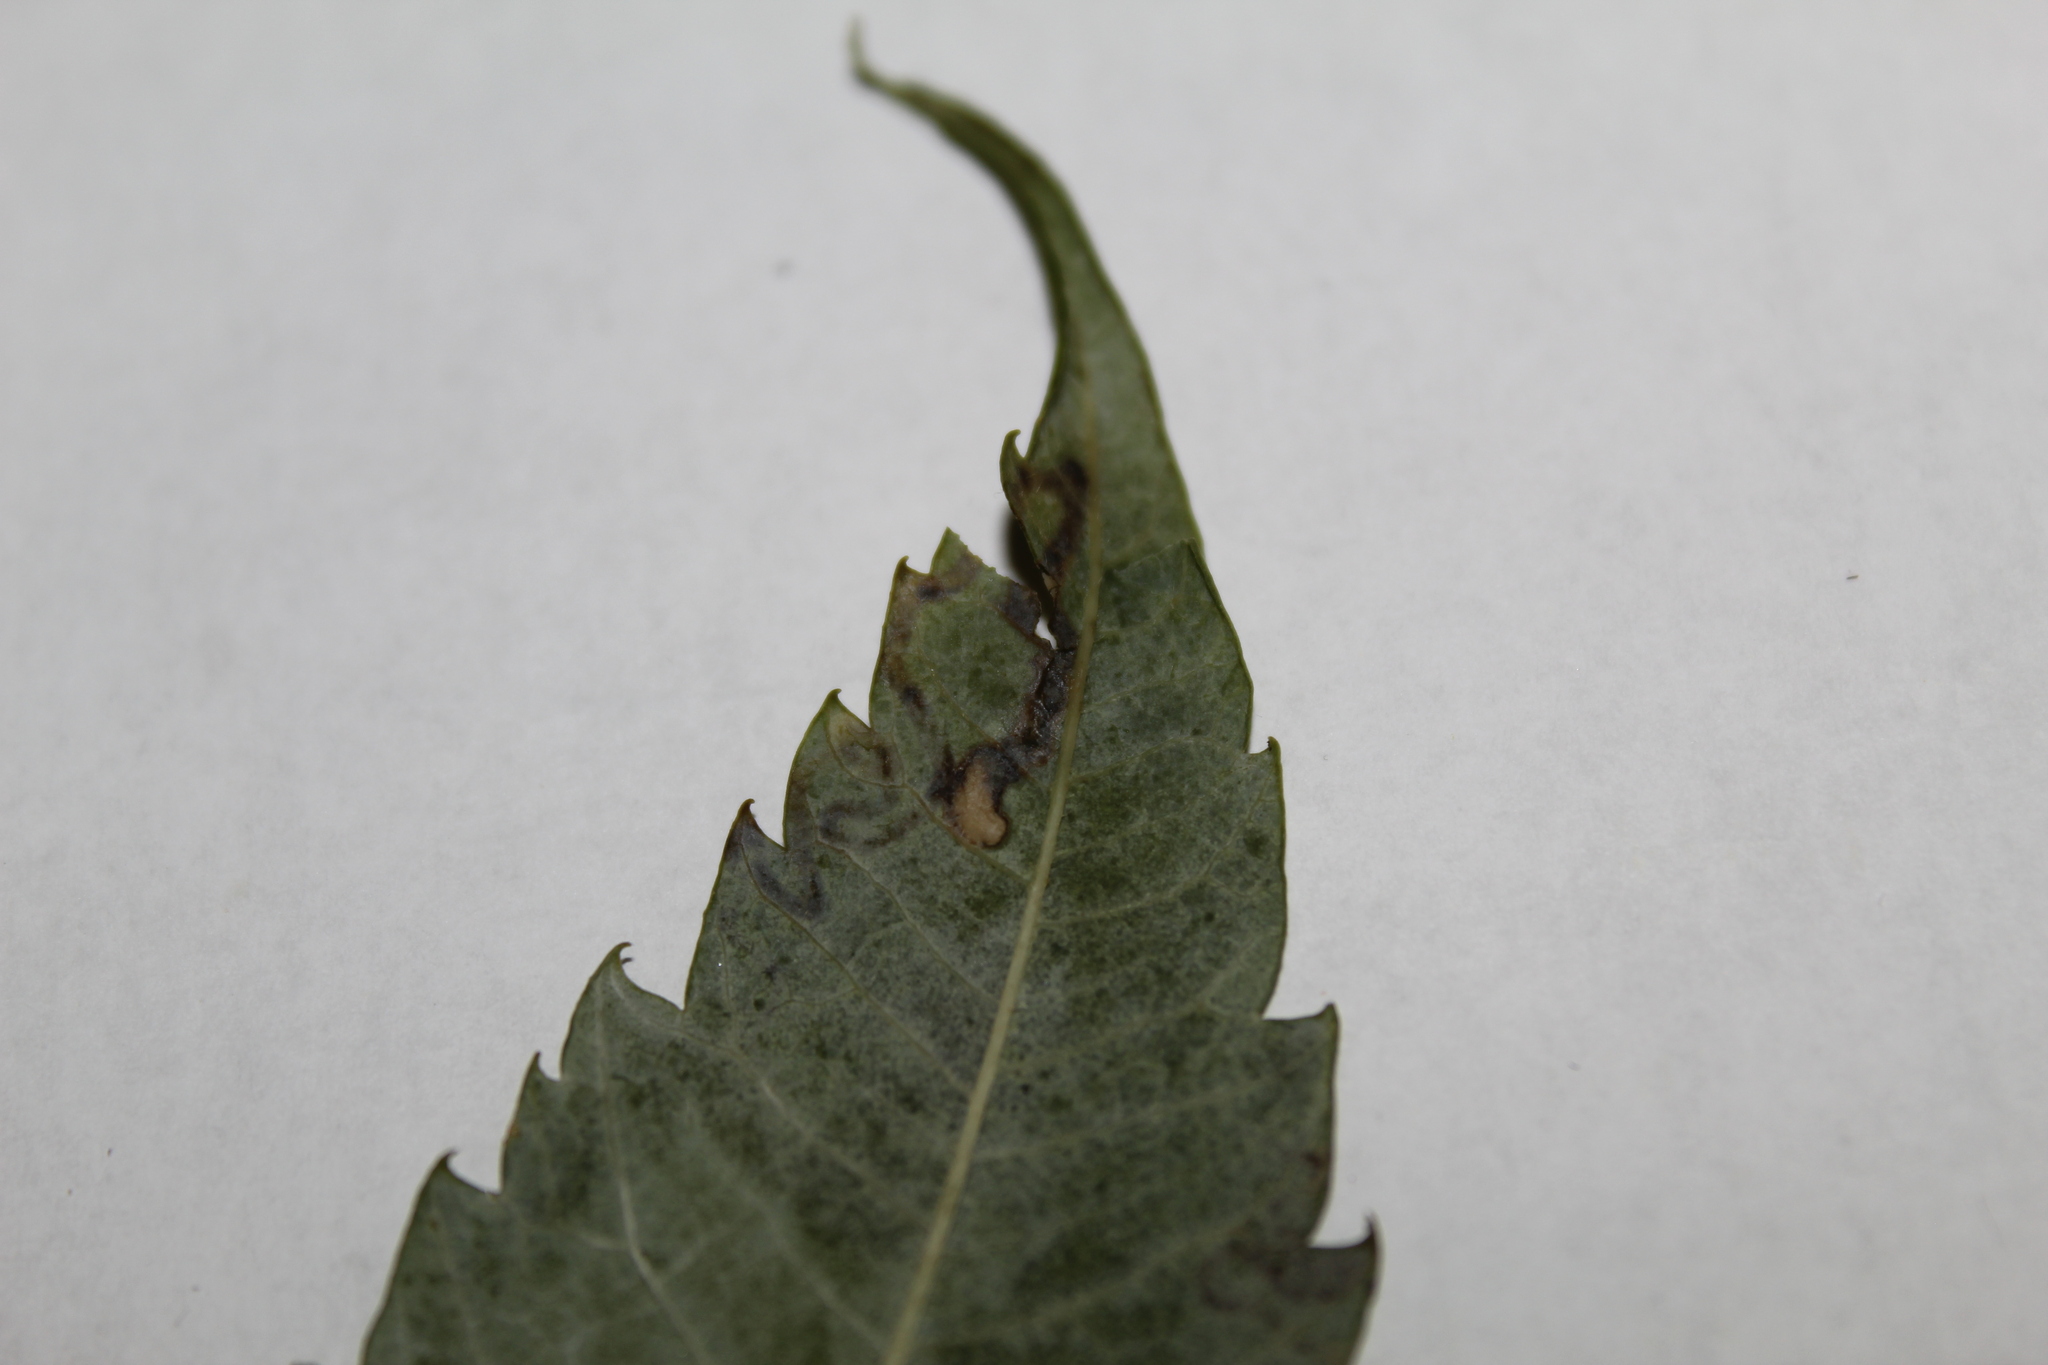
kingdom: Animalia
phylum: Arthropoda
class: Insecta
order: Lepidoptera
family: Nepticulidae
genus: Stigmella
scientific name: Stigmella intermedia
